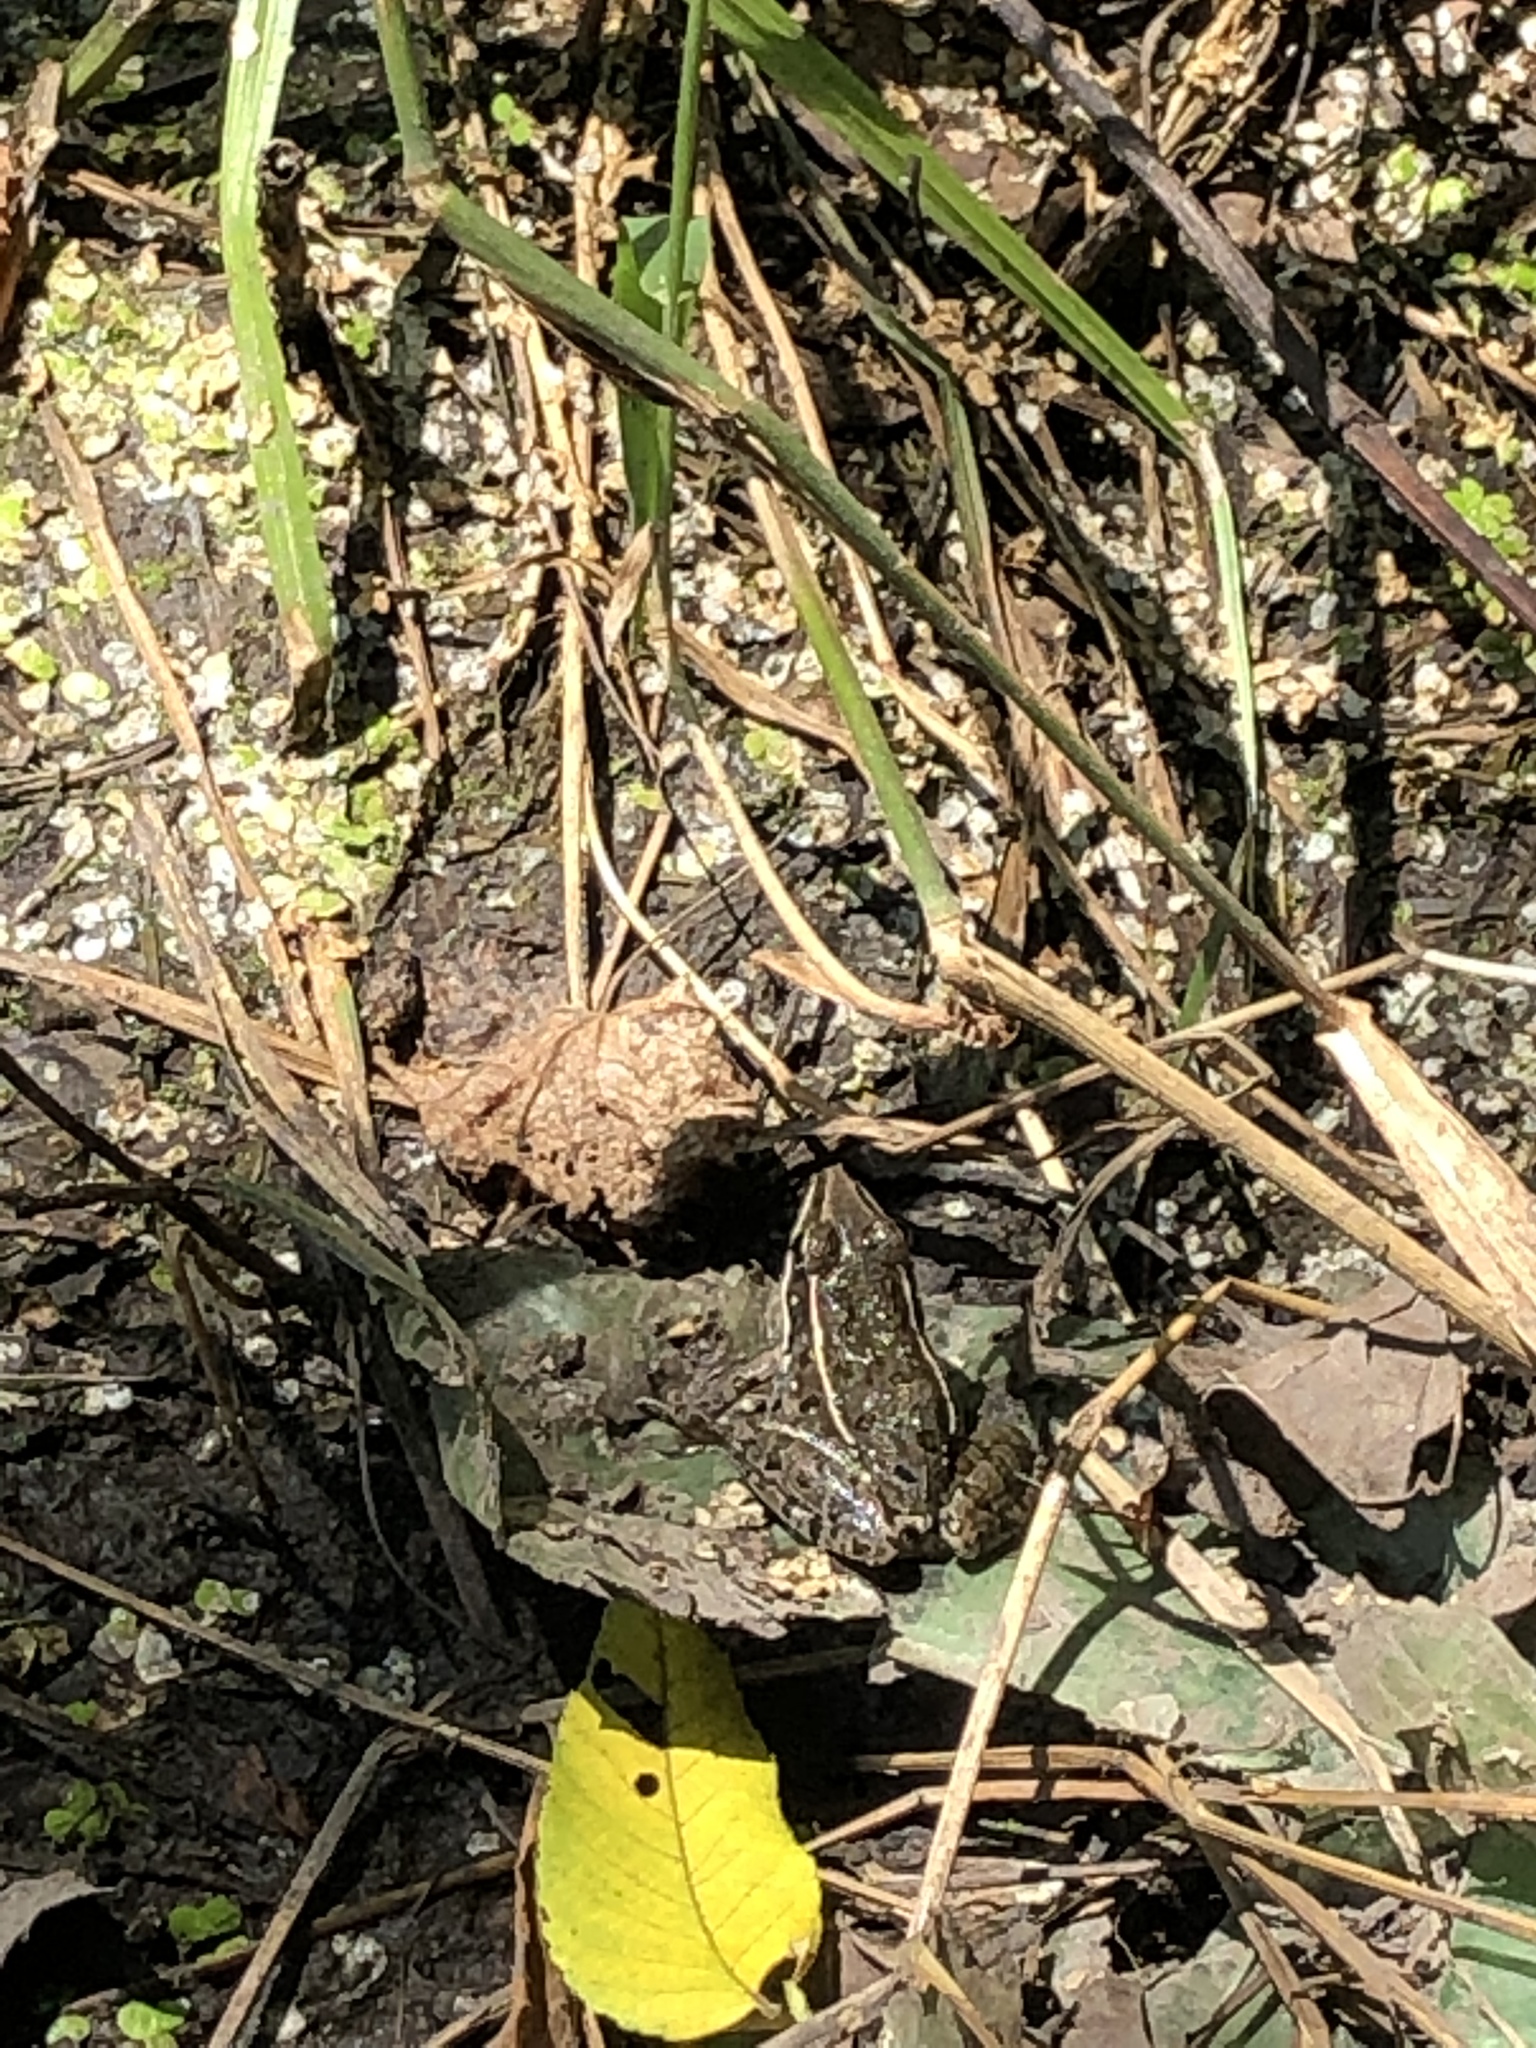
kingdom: Animalia
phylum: Chordata
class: Amphibia
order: Anura
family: Ranidae
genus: Lithobates
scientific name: Lithobates blairi
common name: Plains leopard frog
